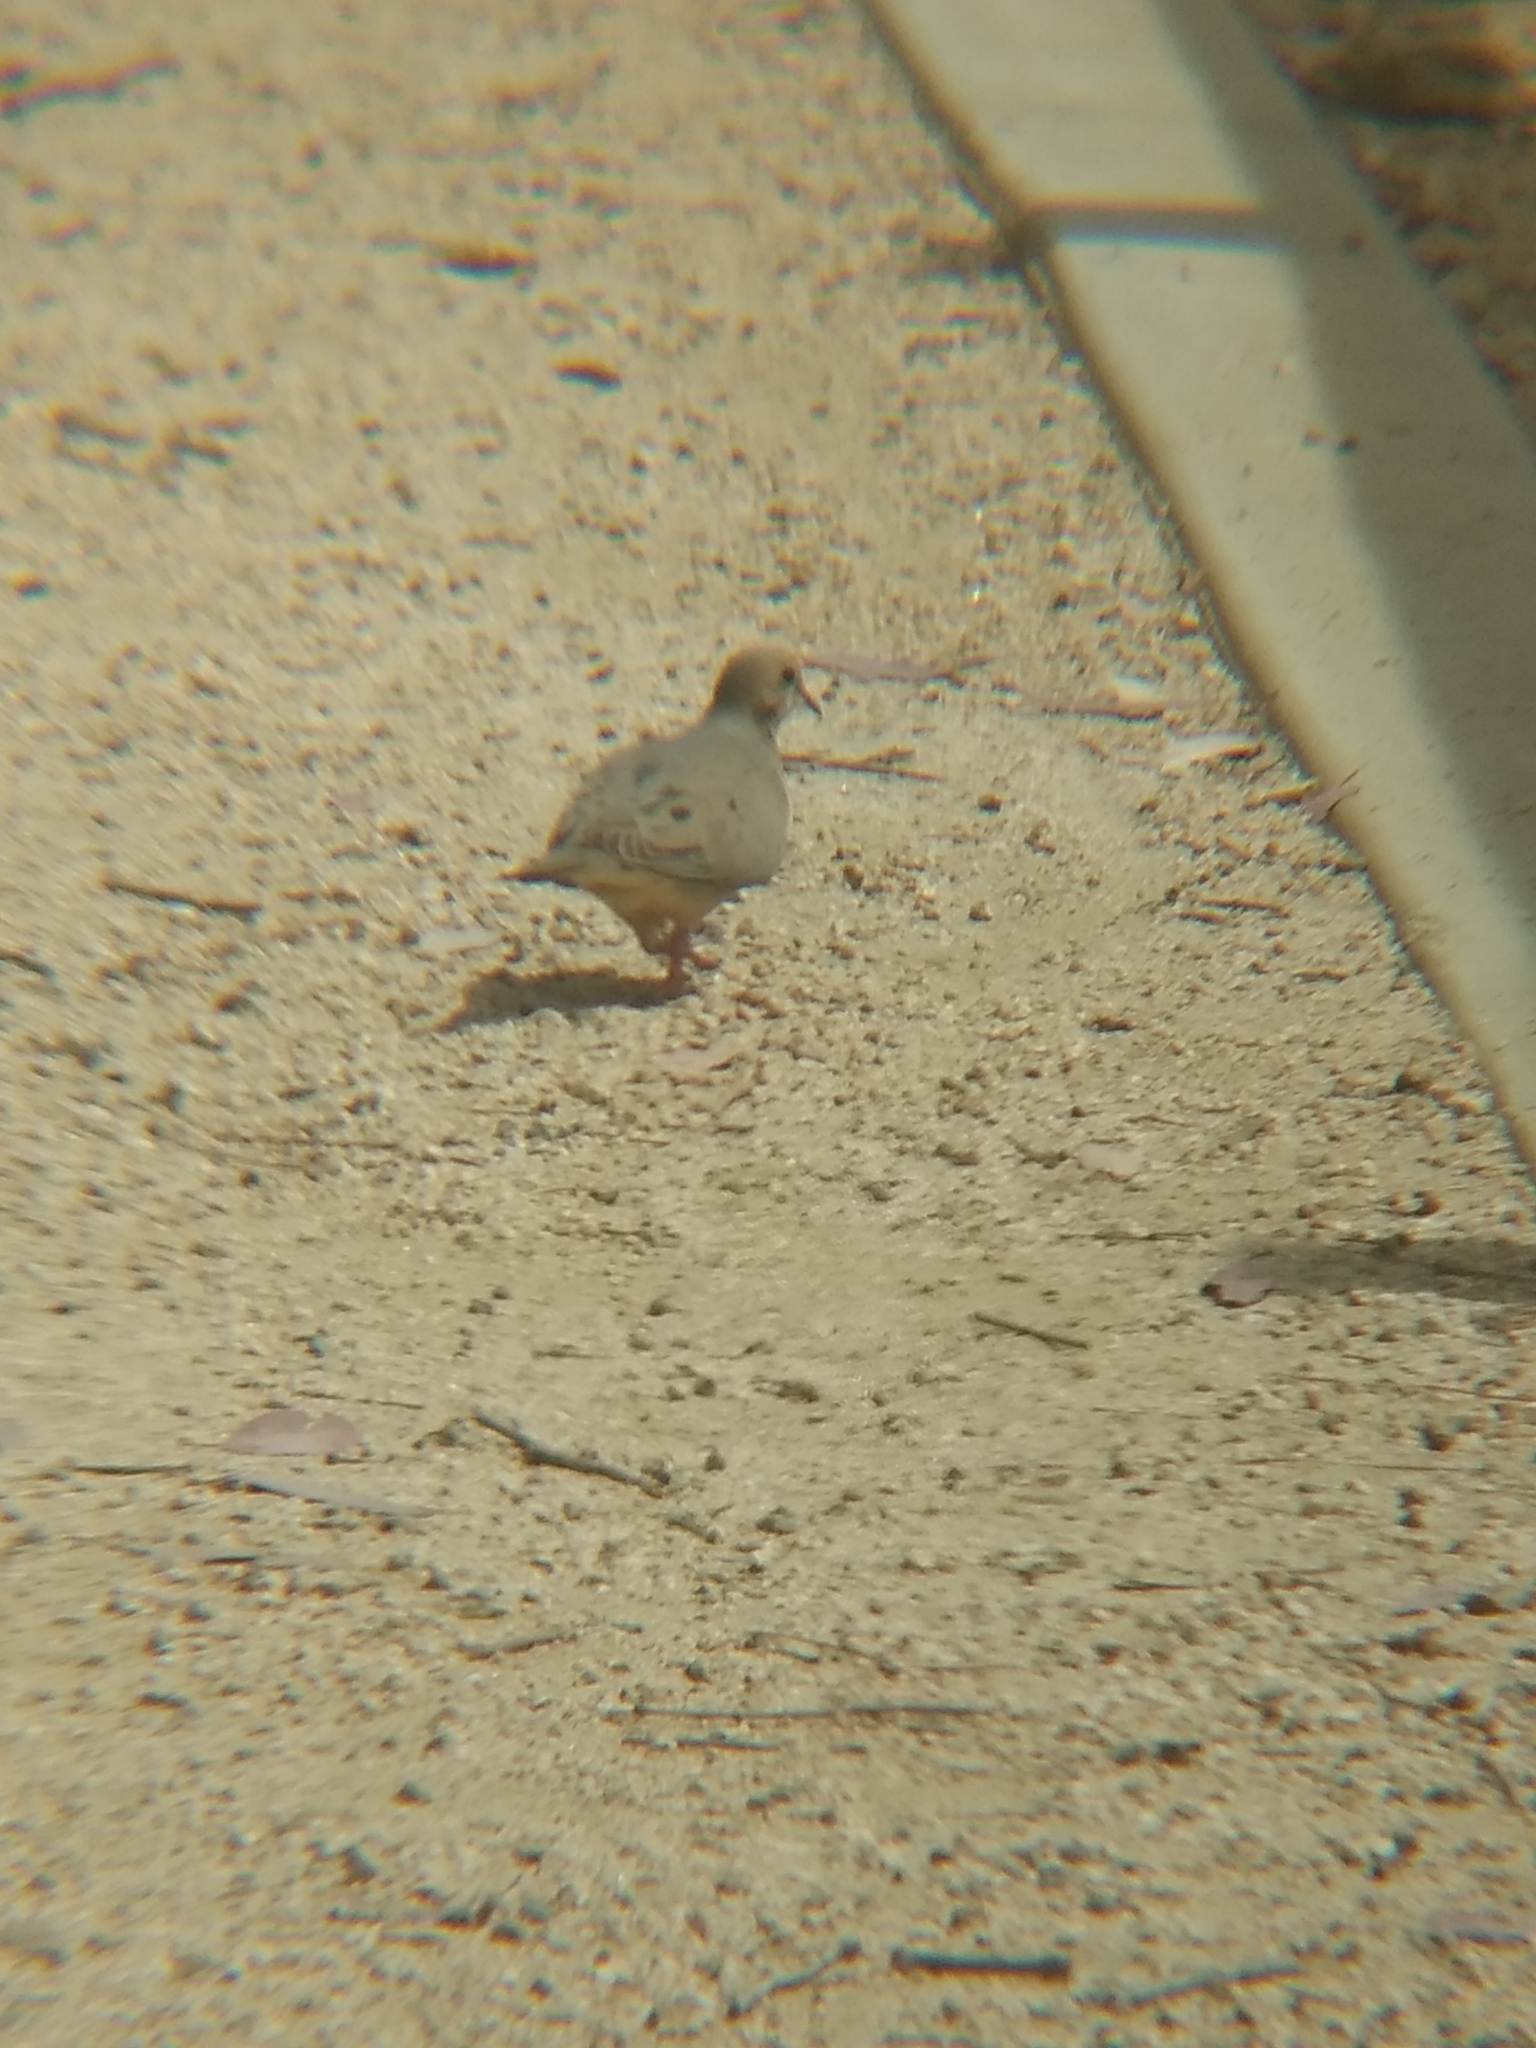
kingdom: Animalia
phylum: Chordata
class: Aves
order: Columbiformes
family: Columbidae
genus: Zenaida
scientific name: Zenaida macroura
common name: Mourning dove
